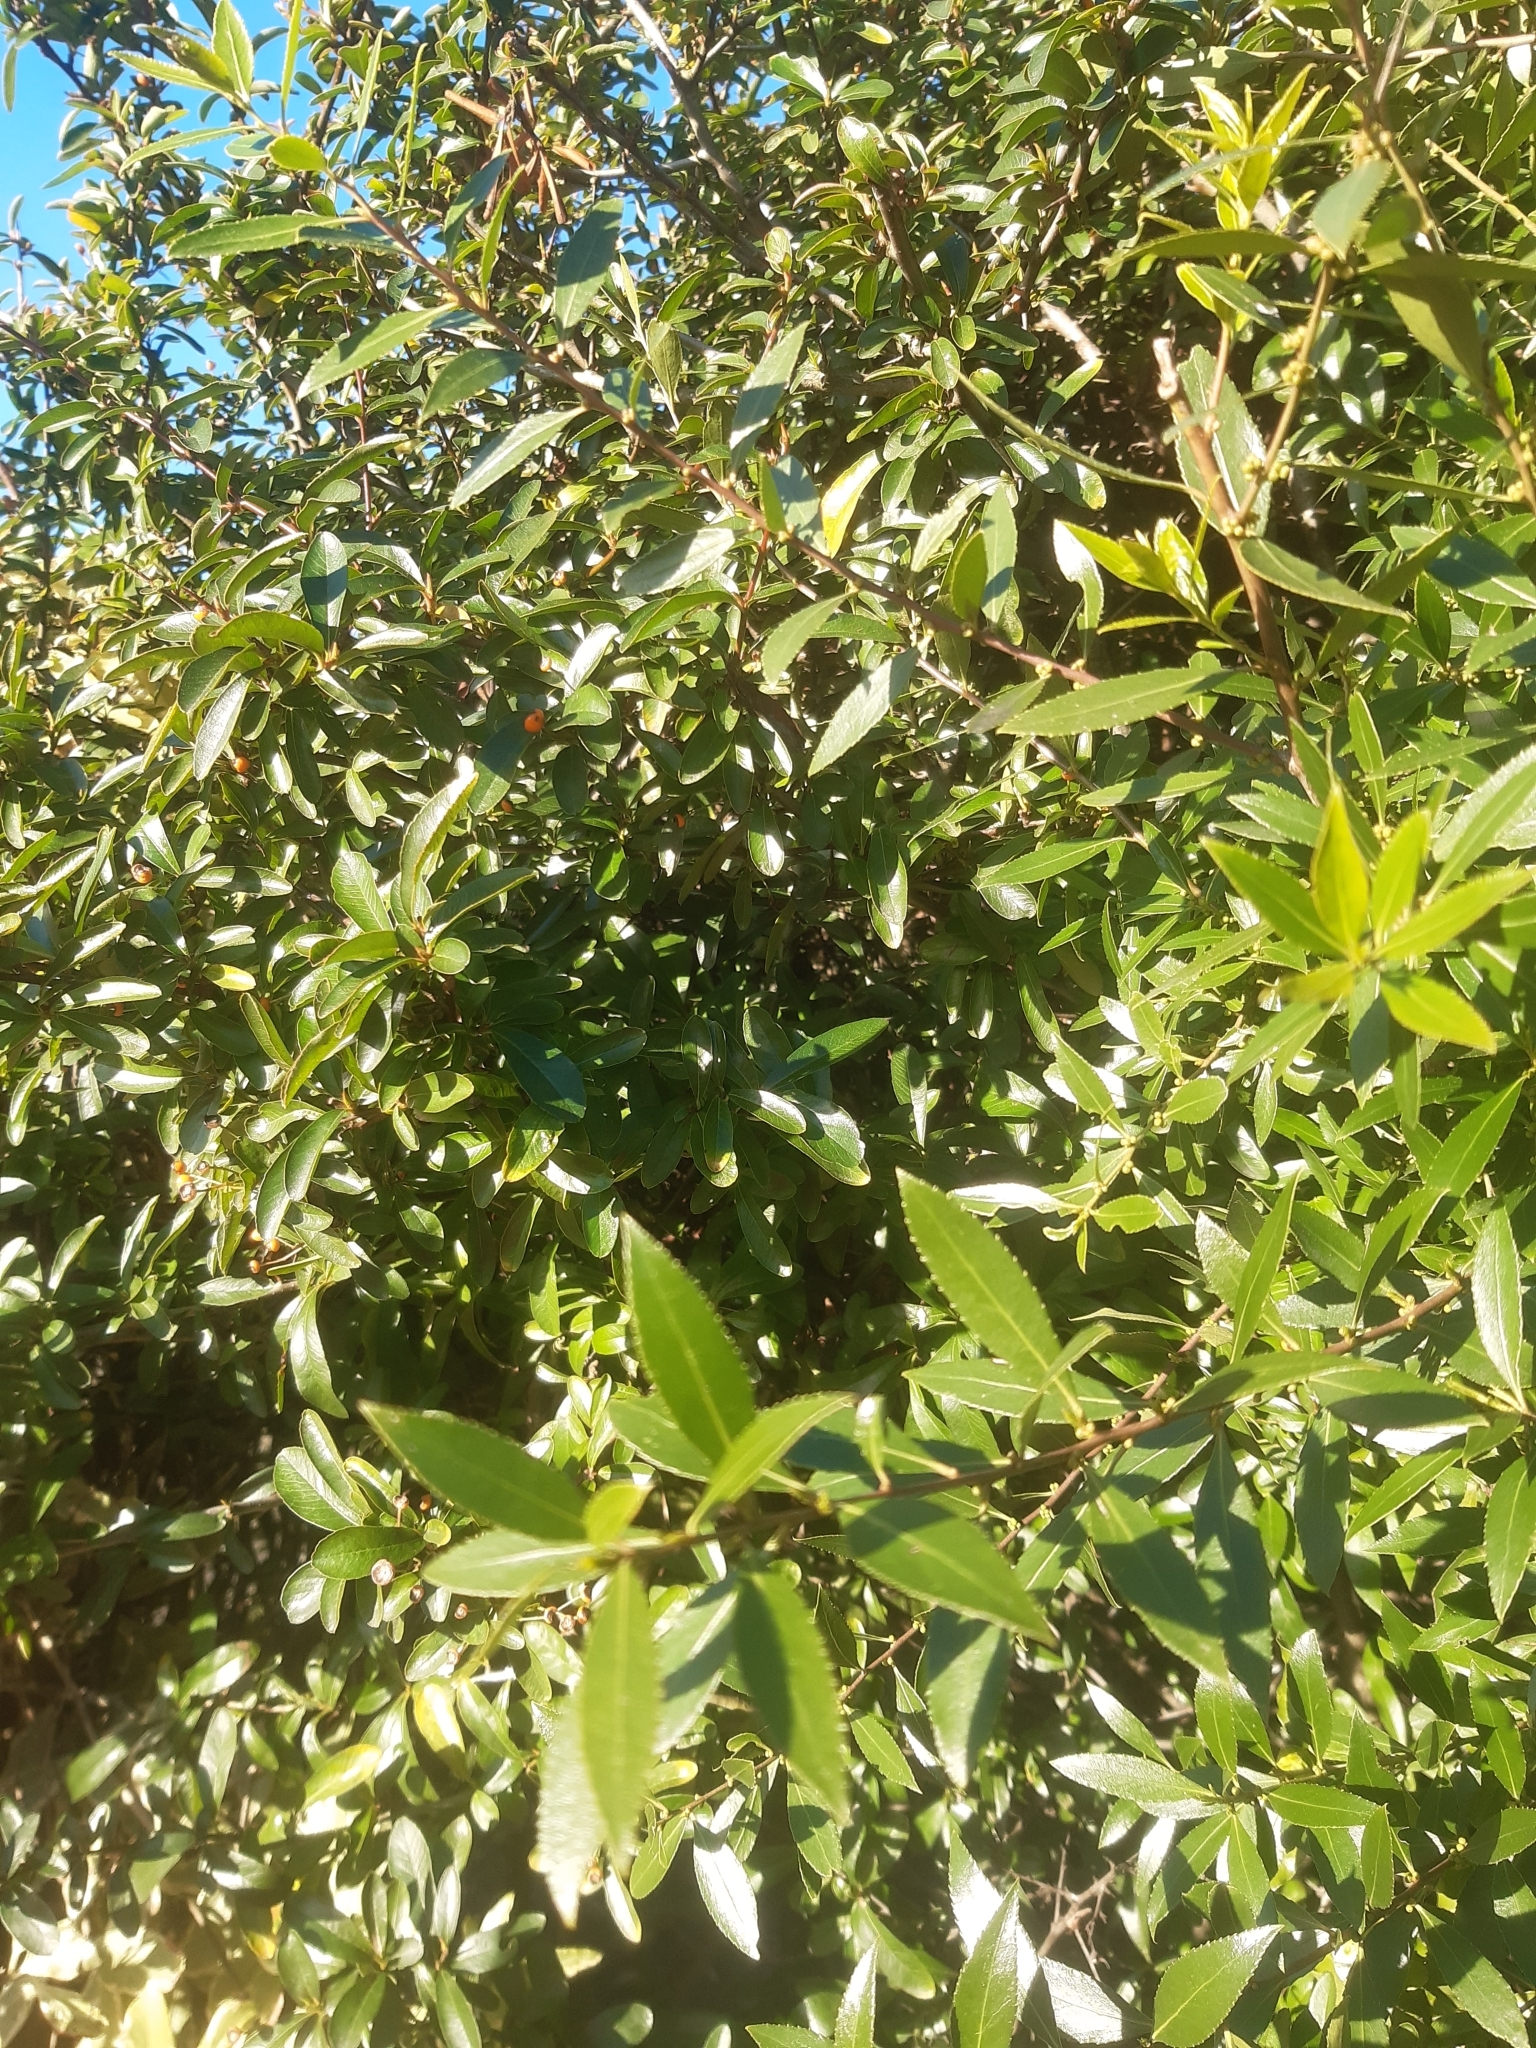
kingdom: Plantae
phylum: Tracheophyta
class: Magnoliopsida
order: Celastrales
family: Celastraceae
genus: Maytenus
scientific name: Maytenus boaria
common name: Mayten
